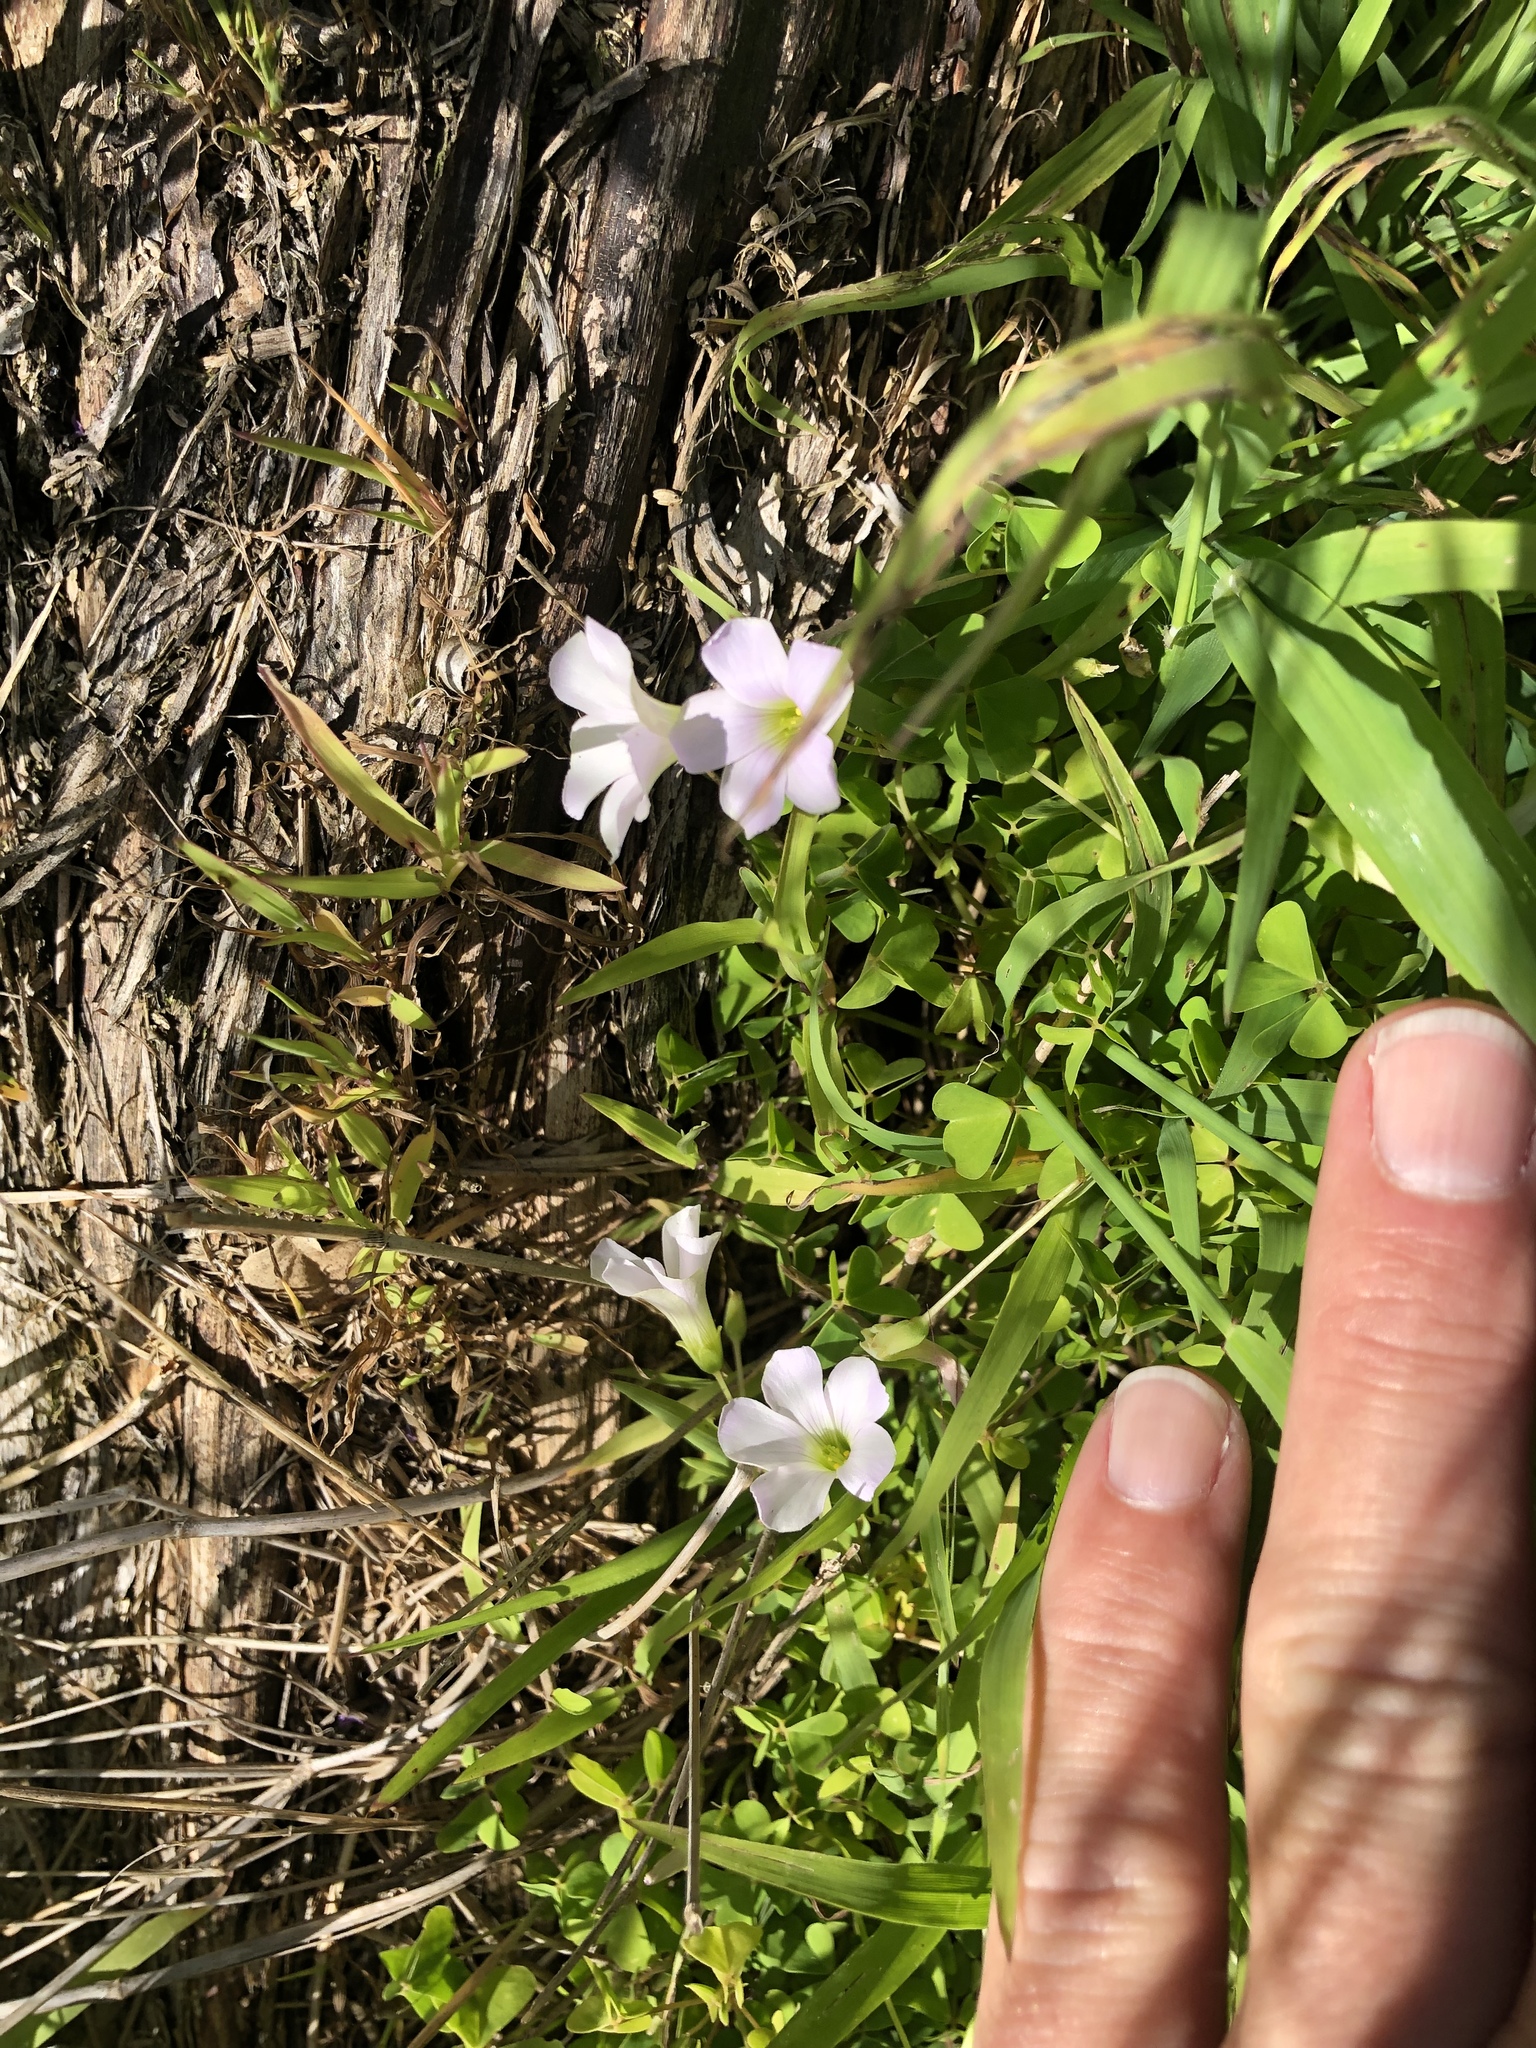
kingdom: Plantae
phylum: Tracheophyta
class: Magnoliopsida
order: Oxalidales
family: Oxalidaceae
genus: Oxalis
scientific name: Oxalis incarnata
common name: Pale pink-sorrel
